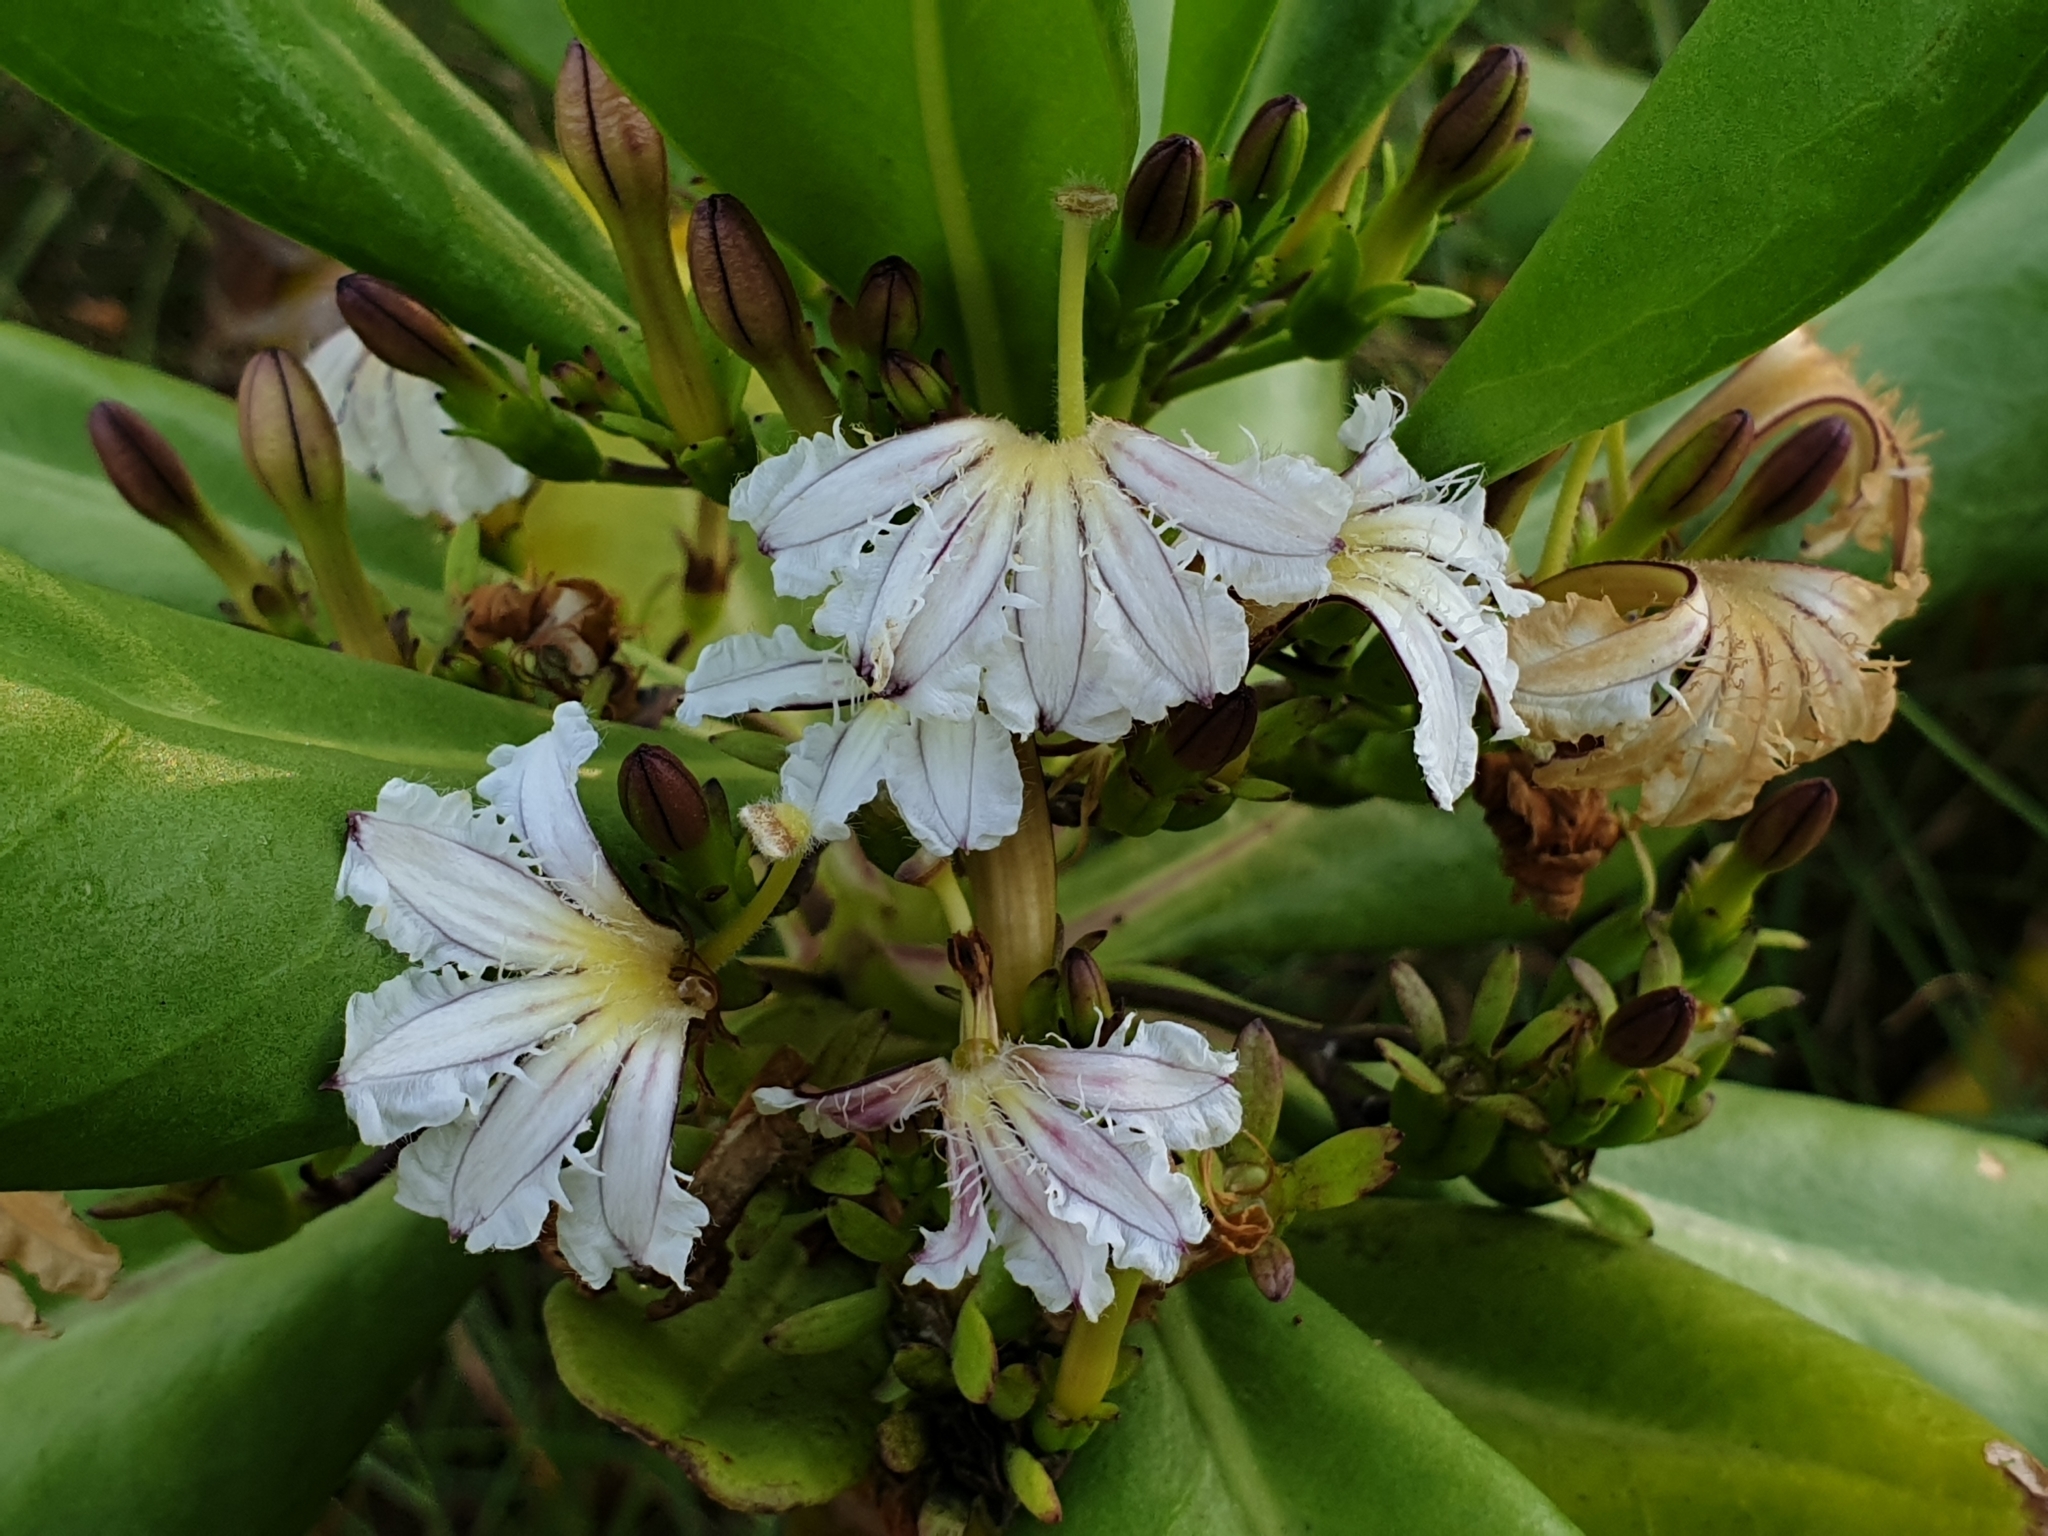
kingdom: Plantae
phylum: Tracheophyta
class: Magnoliopsida
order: Asterales
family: Goodeniaceae
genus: Scaevola
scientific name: Scaevola taccada
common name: Sea lettucetree
